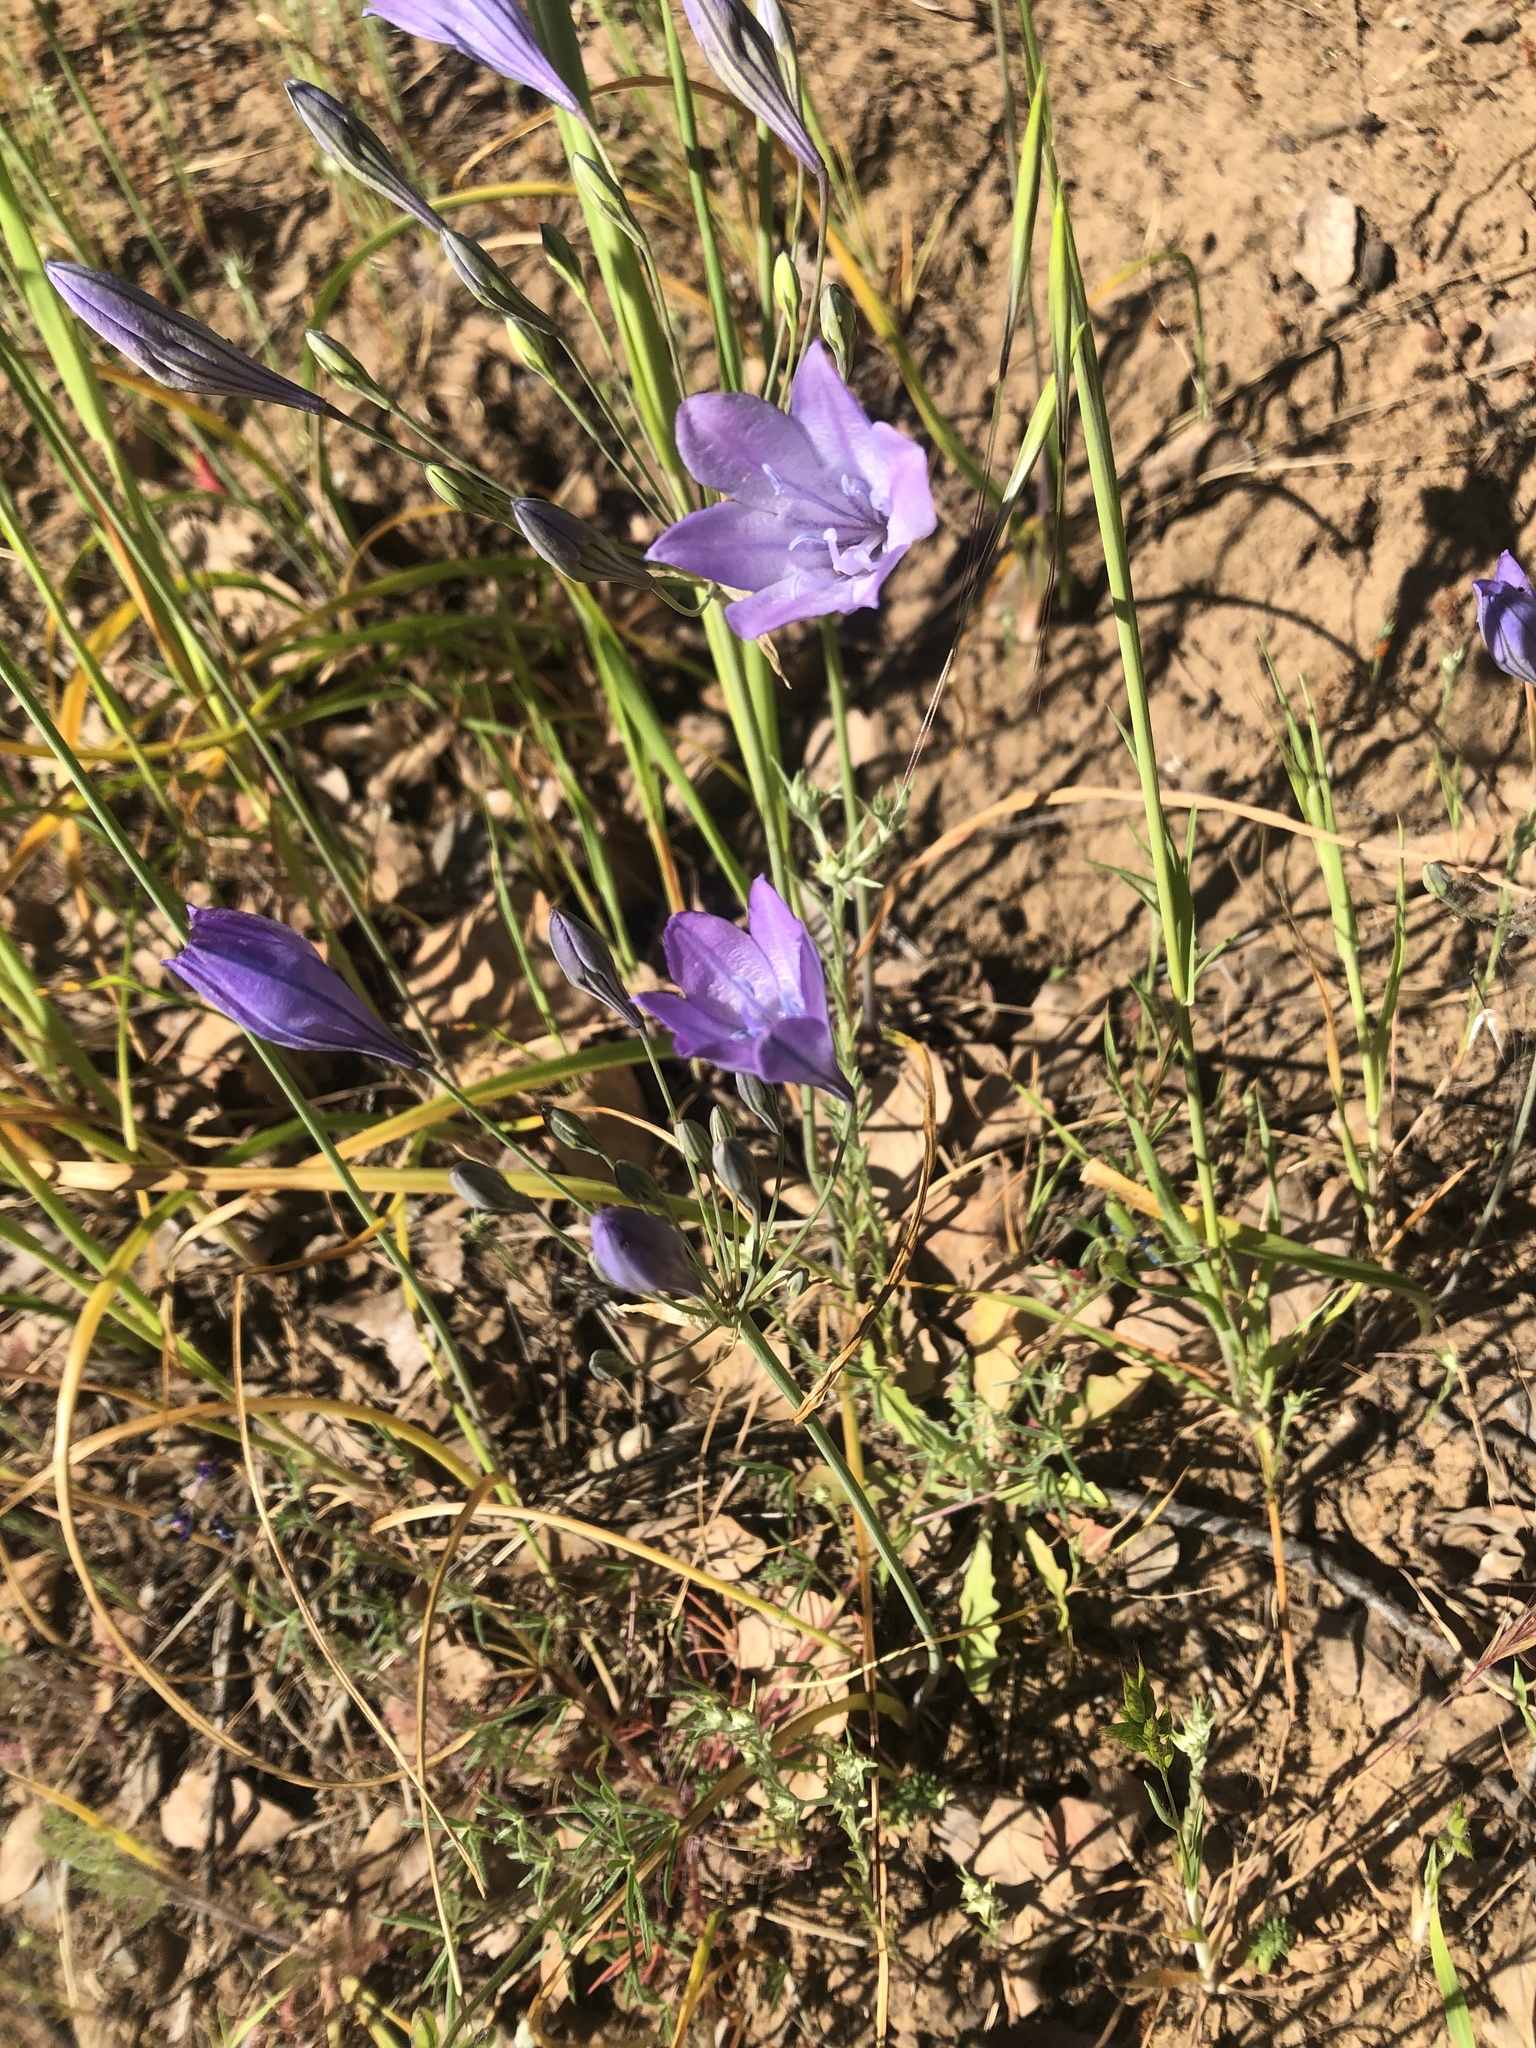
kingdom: Plantae
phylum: Tracheophyta
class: Liliopsida
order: Asparagales
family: Asparagaceae
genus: Triteleia
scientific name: Triteleia laxa
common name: Triplet-lily
